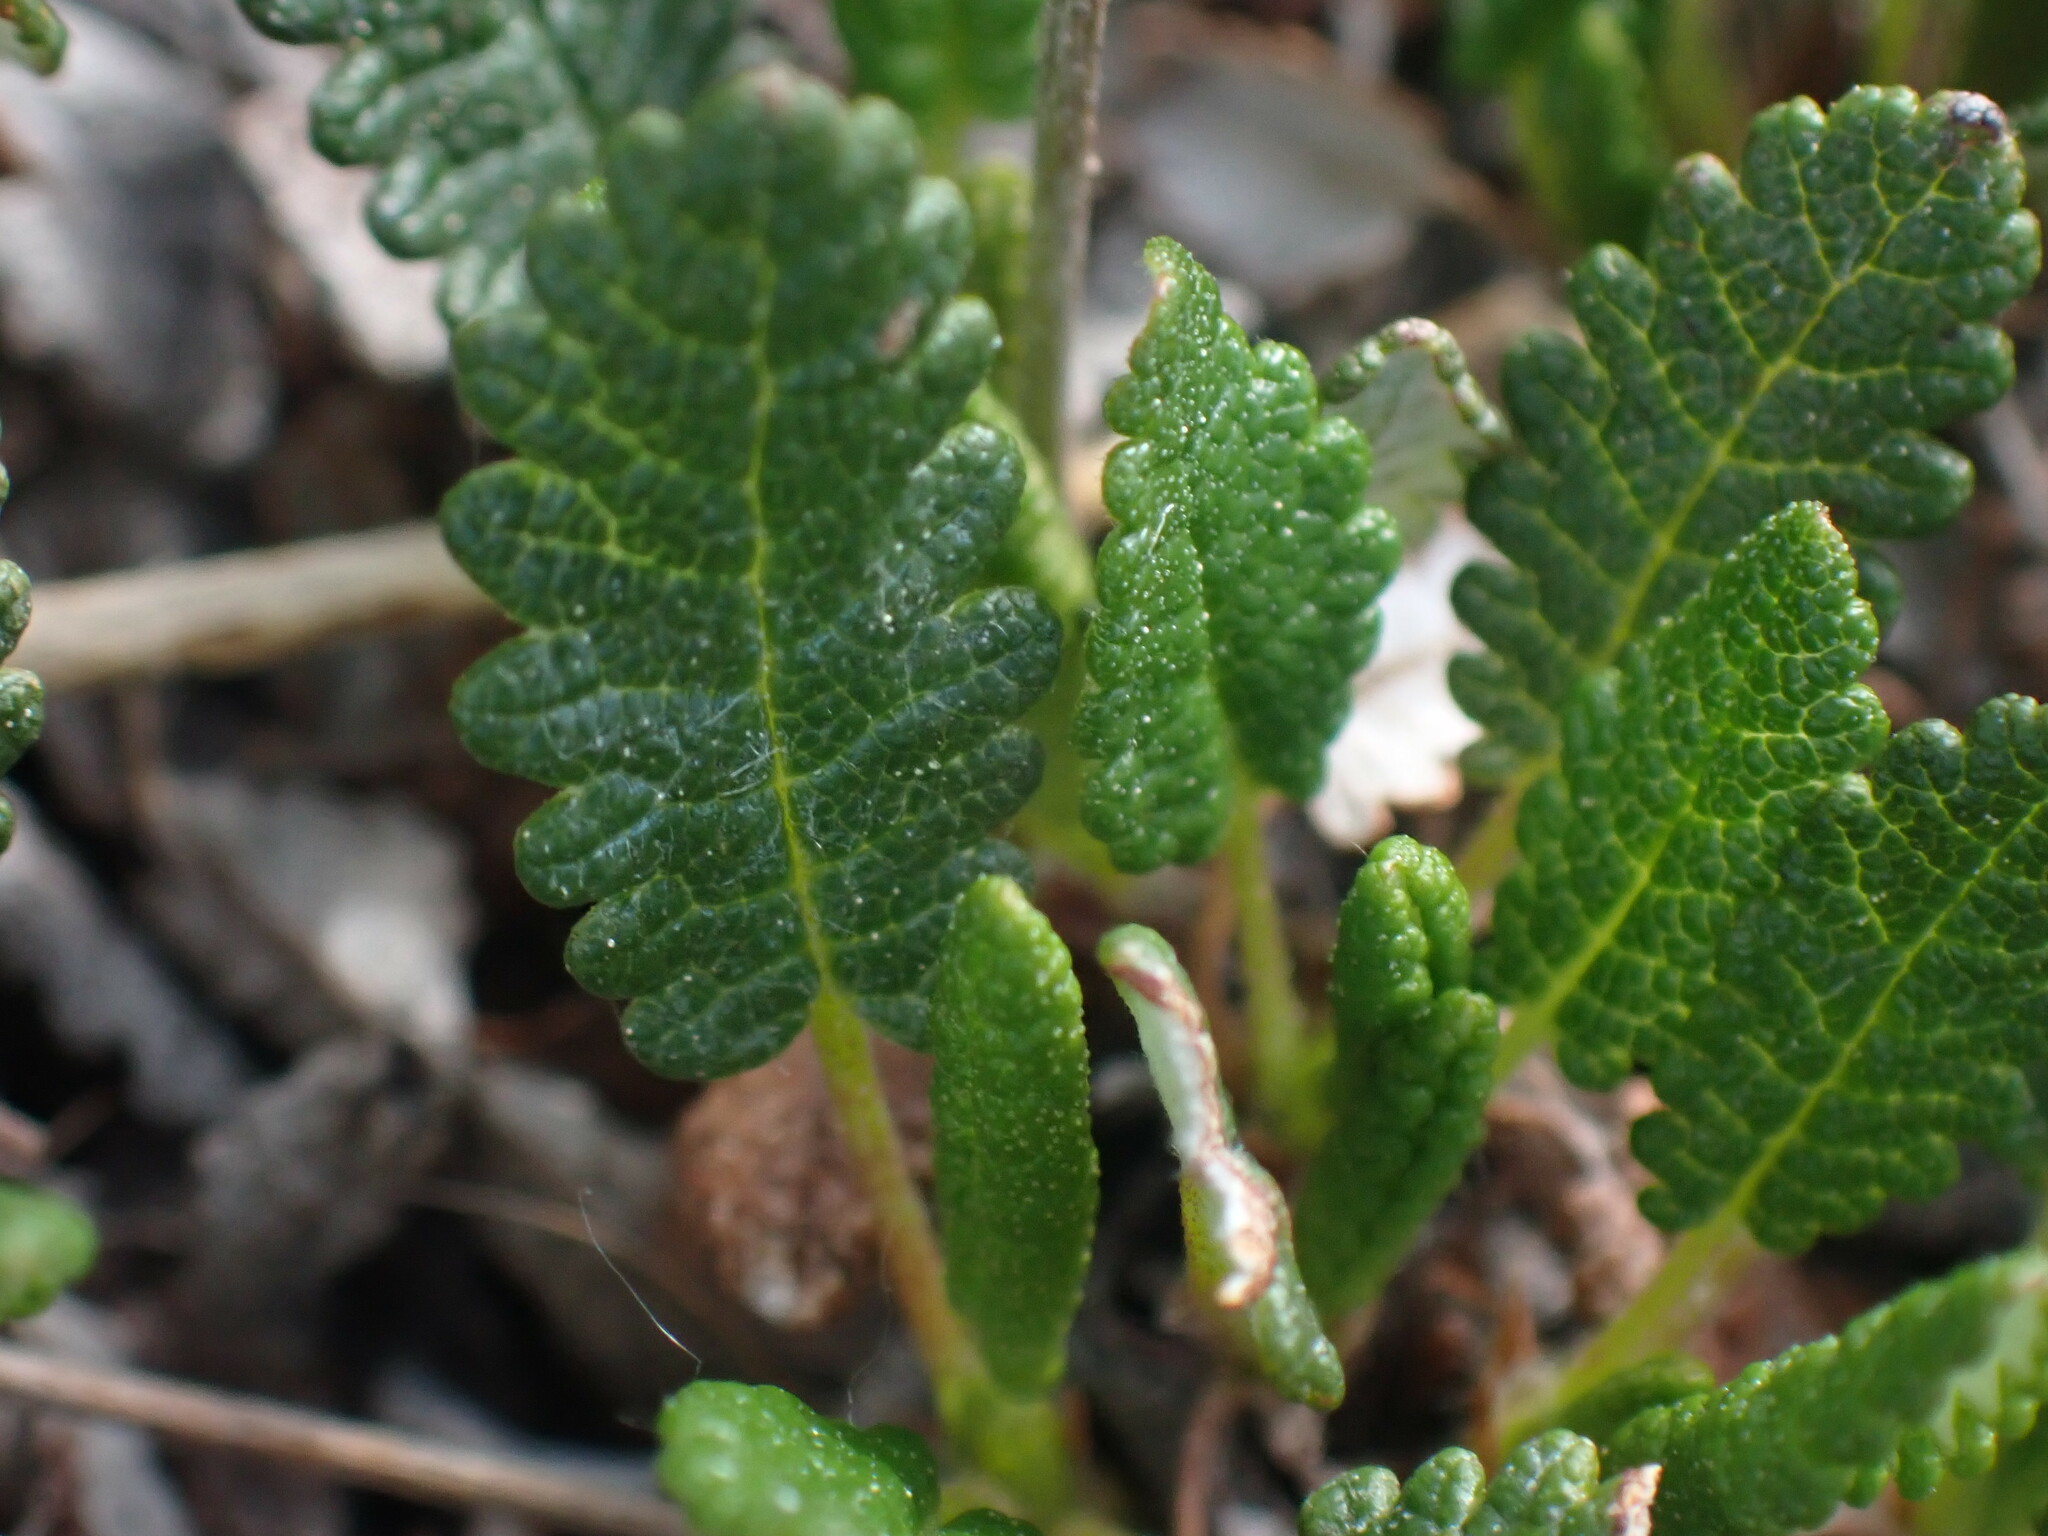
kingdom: Plantae
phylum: Tracheophyta
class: Magnoliopsida
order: Rosales
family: Rosaceae
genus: Dryas
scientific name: Dryas octopetala
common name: Eight-petal mountain-avens
